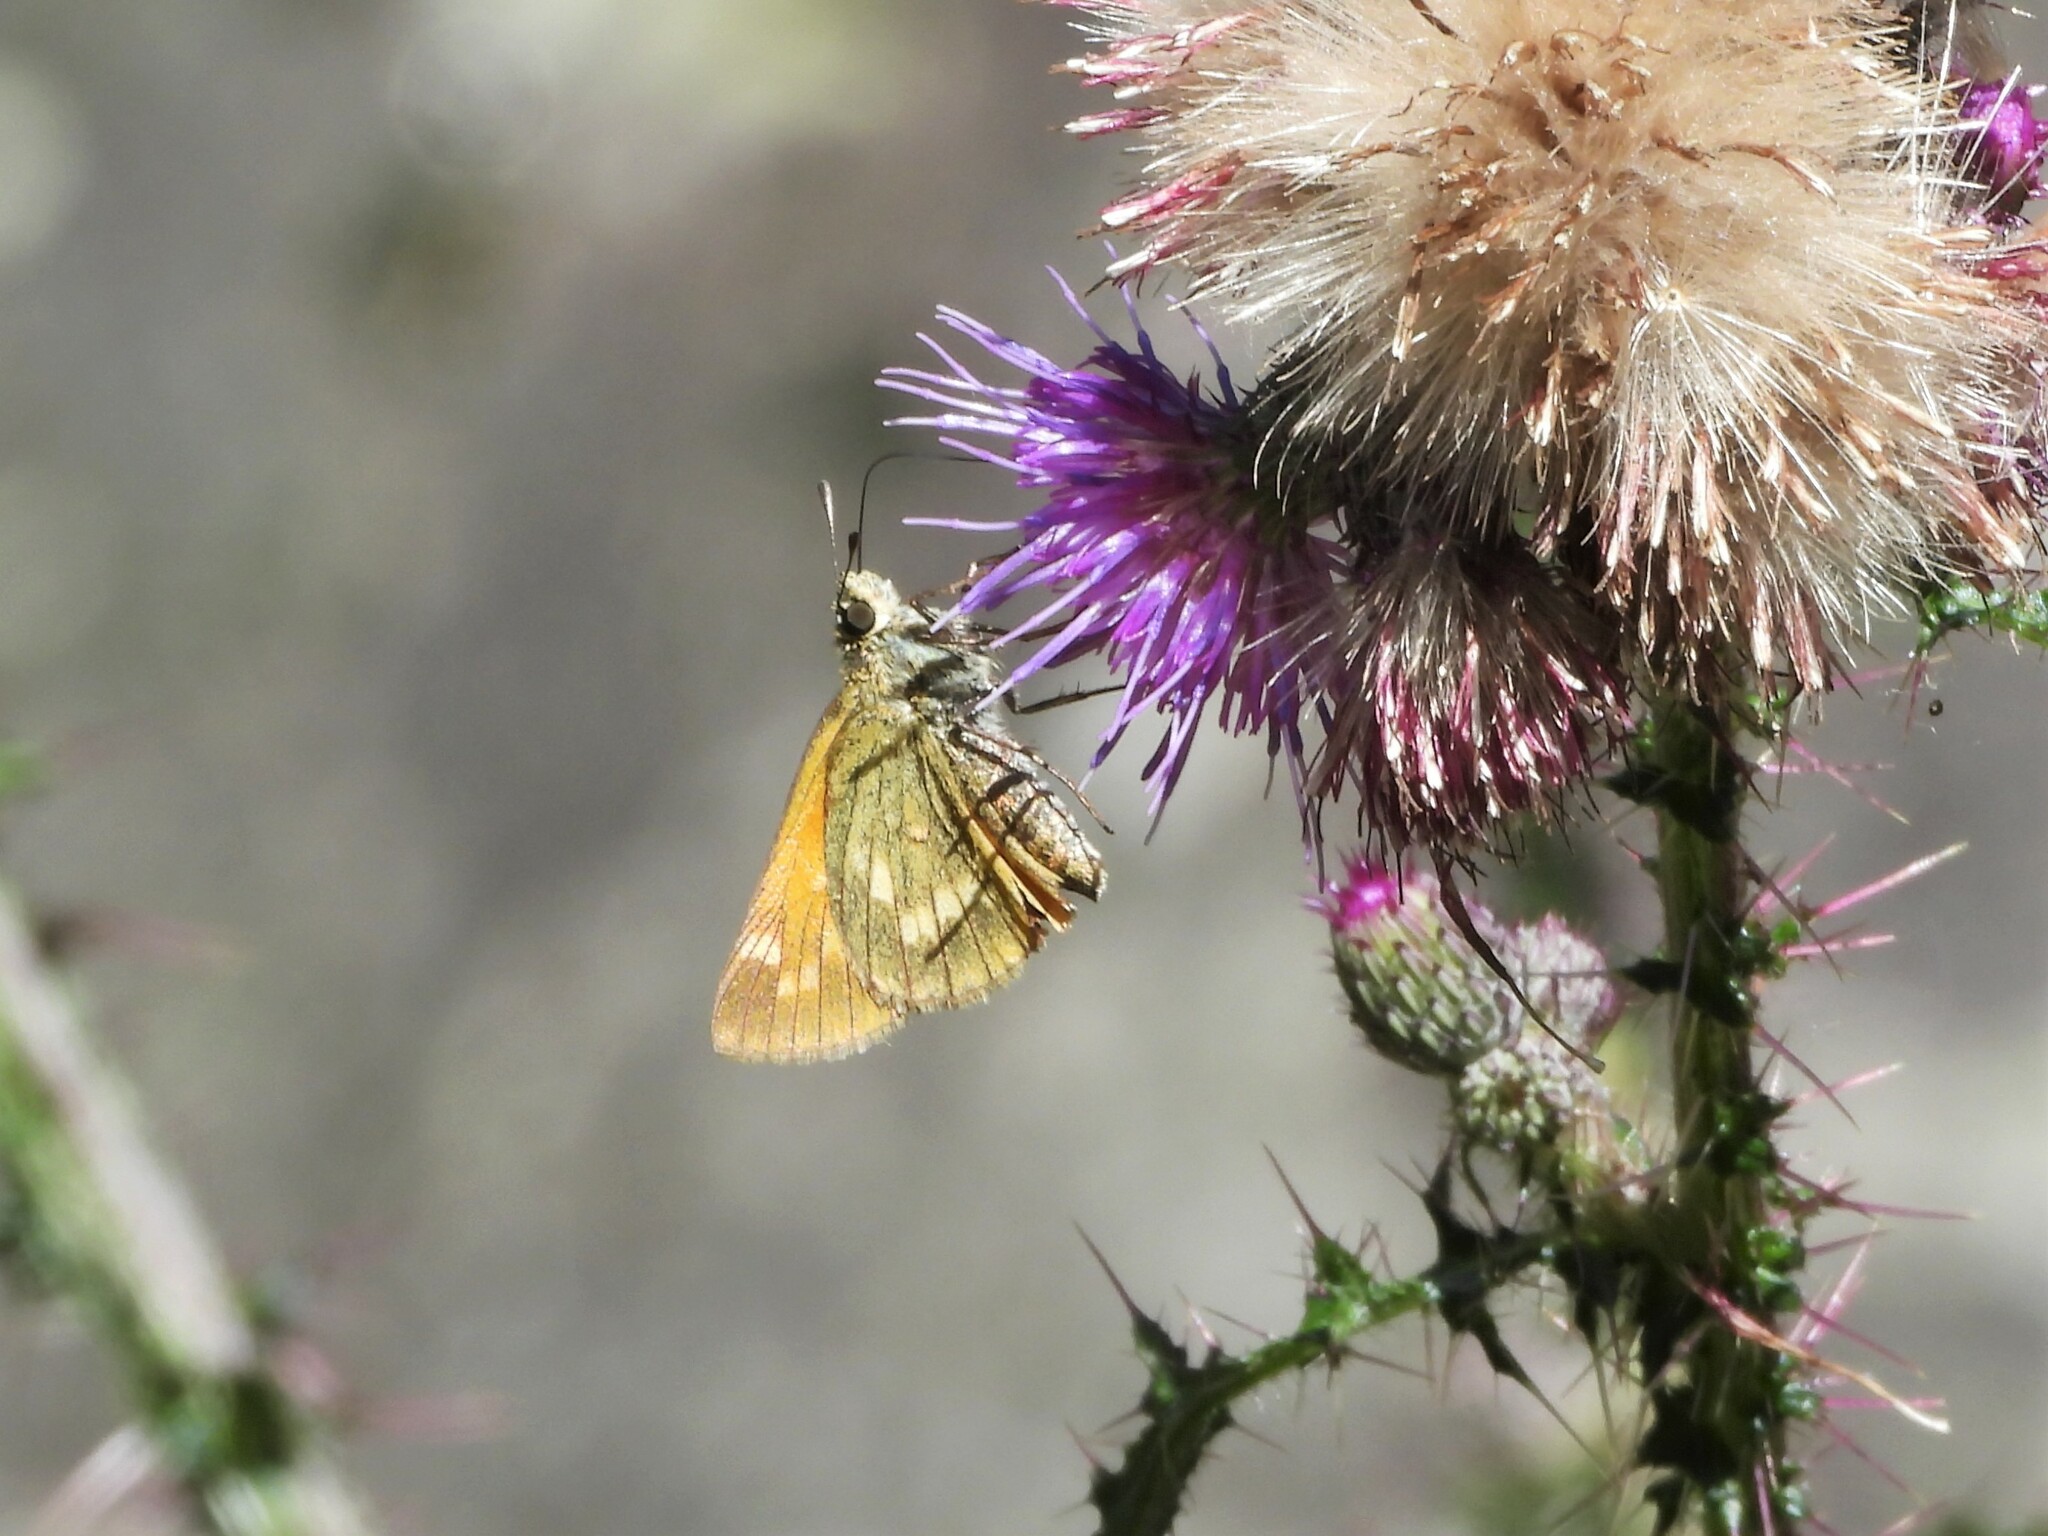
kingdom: Animalia
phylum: Arthropoda
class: Insecta
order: Lepidoptera
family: Hesperiidae
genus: Ochlodes
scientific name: Ochlodes venata
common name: Large skipper
